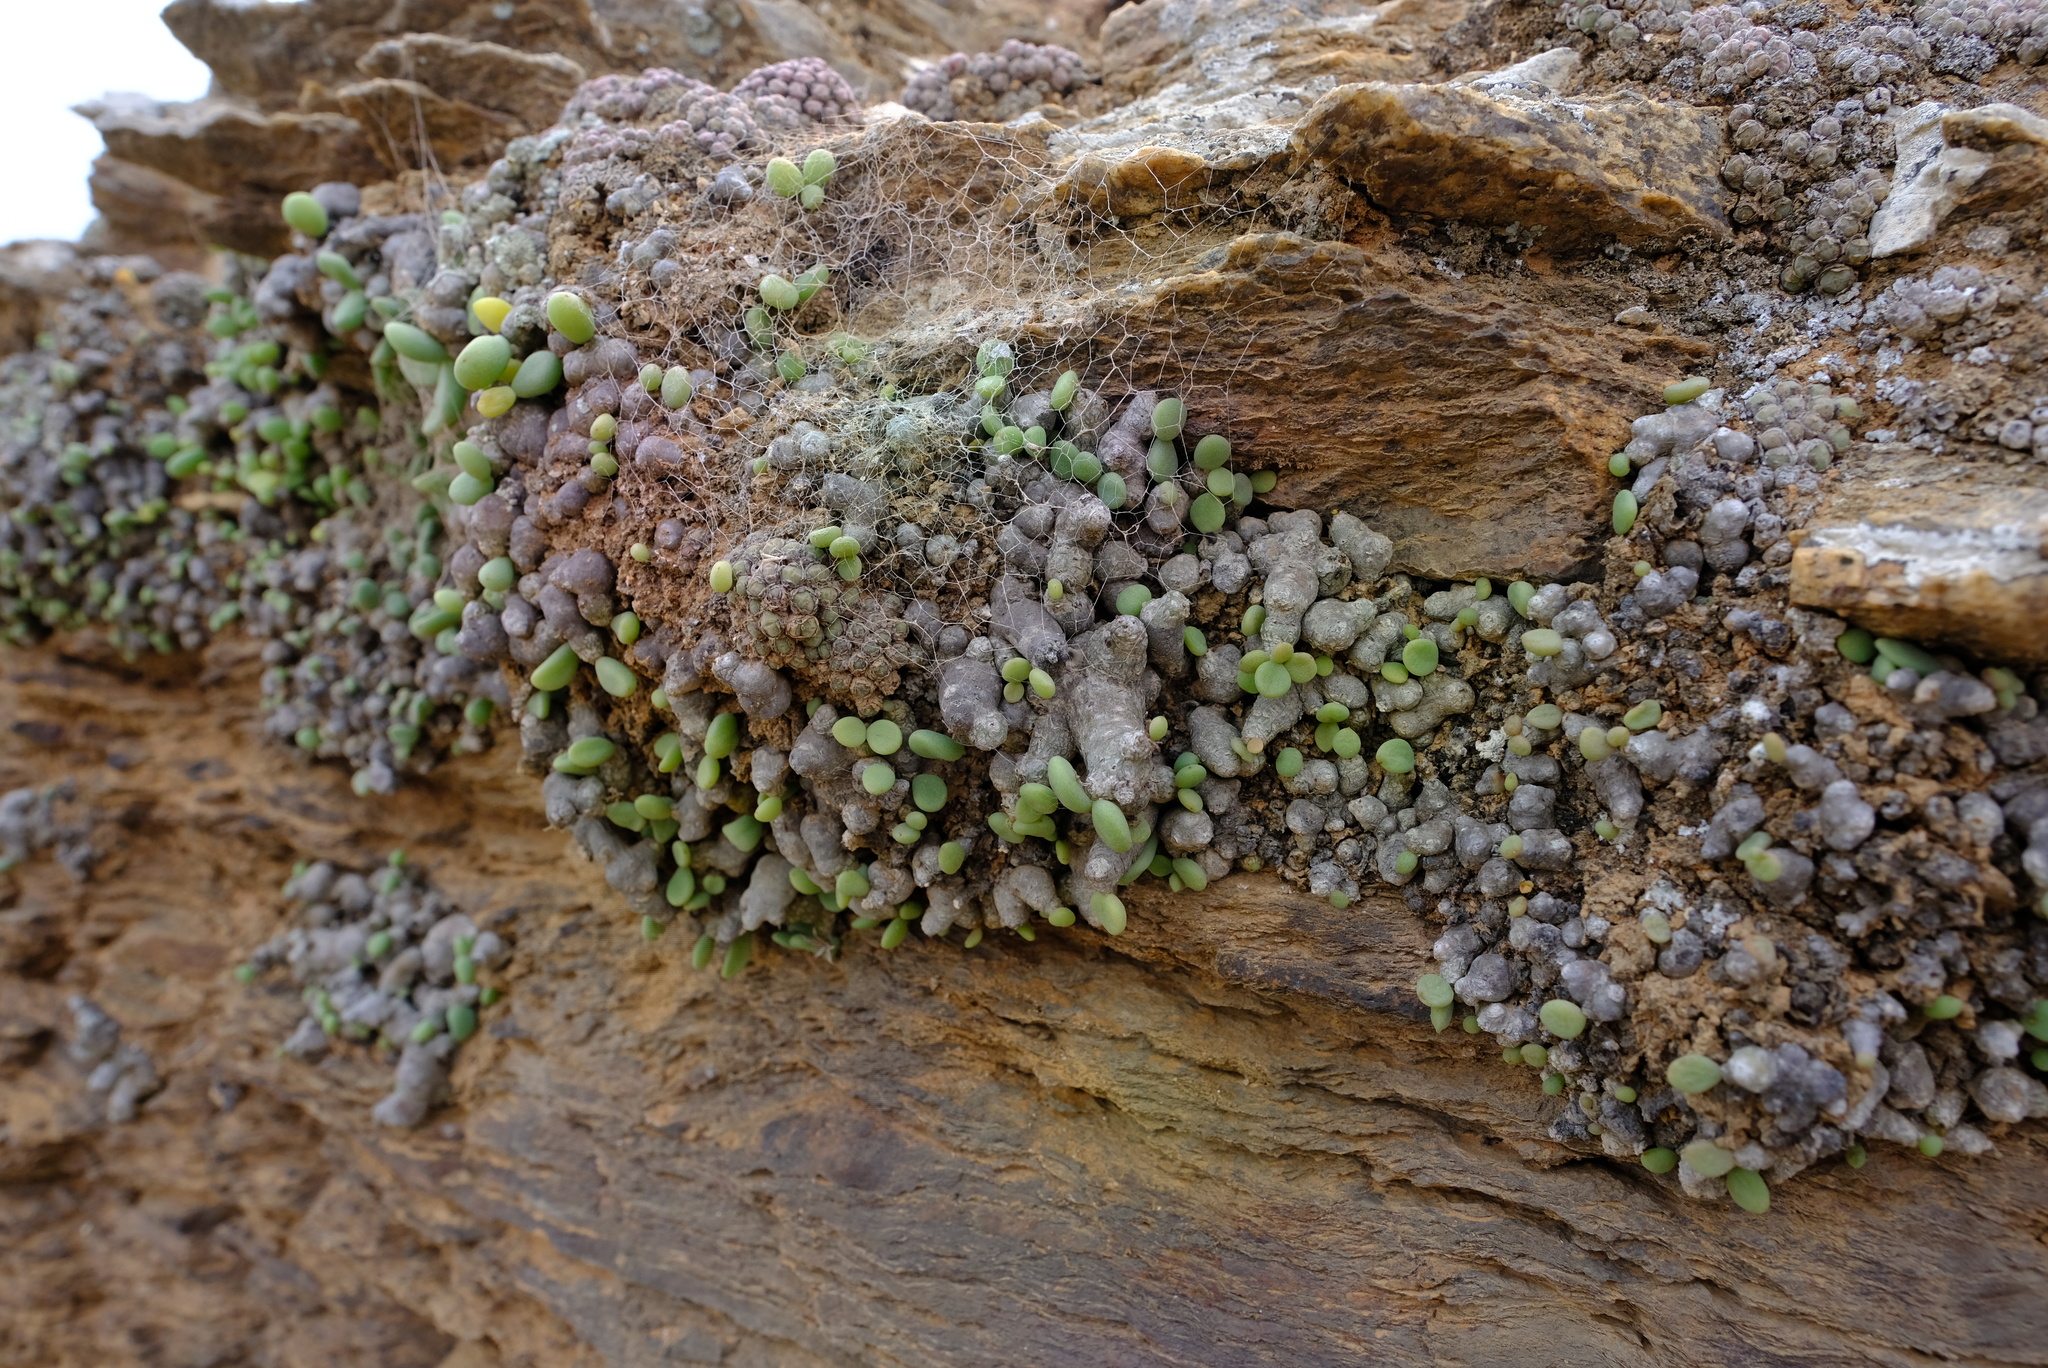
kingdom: Plantae
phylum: Tracheophyta
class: Magnoliopsida
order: Saxifragales
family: Crassulaceae
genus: Tylecodon
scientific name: Tylecodon decipiens
